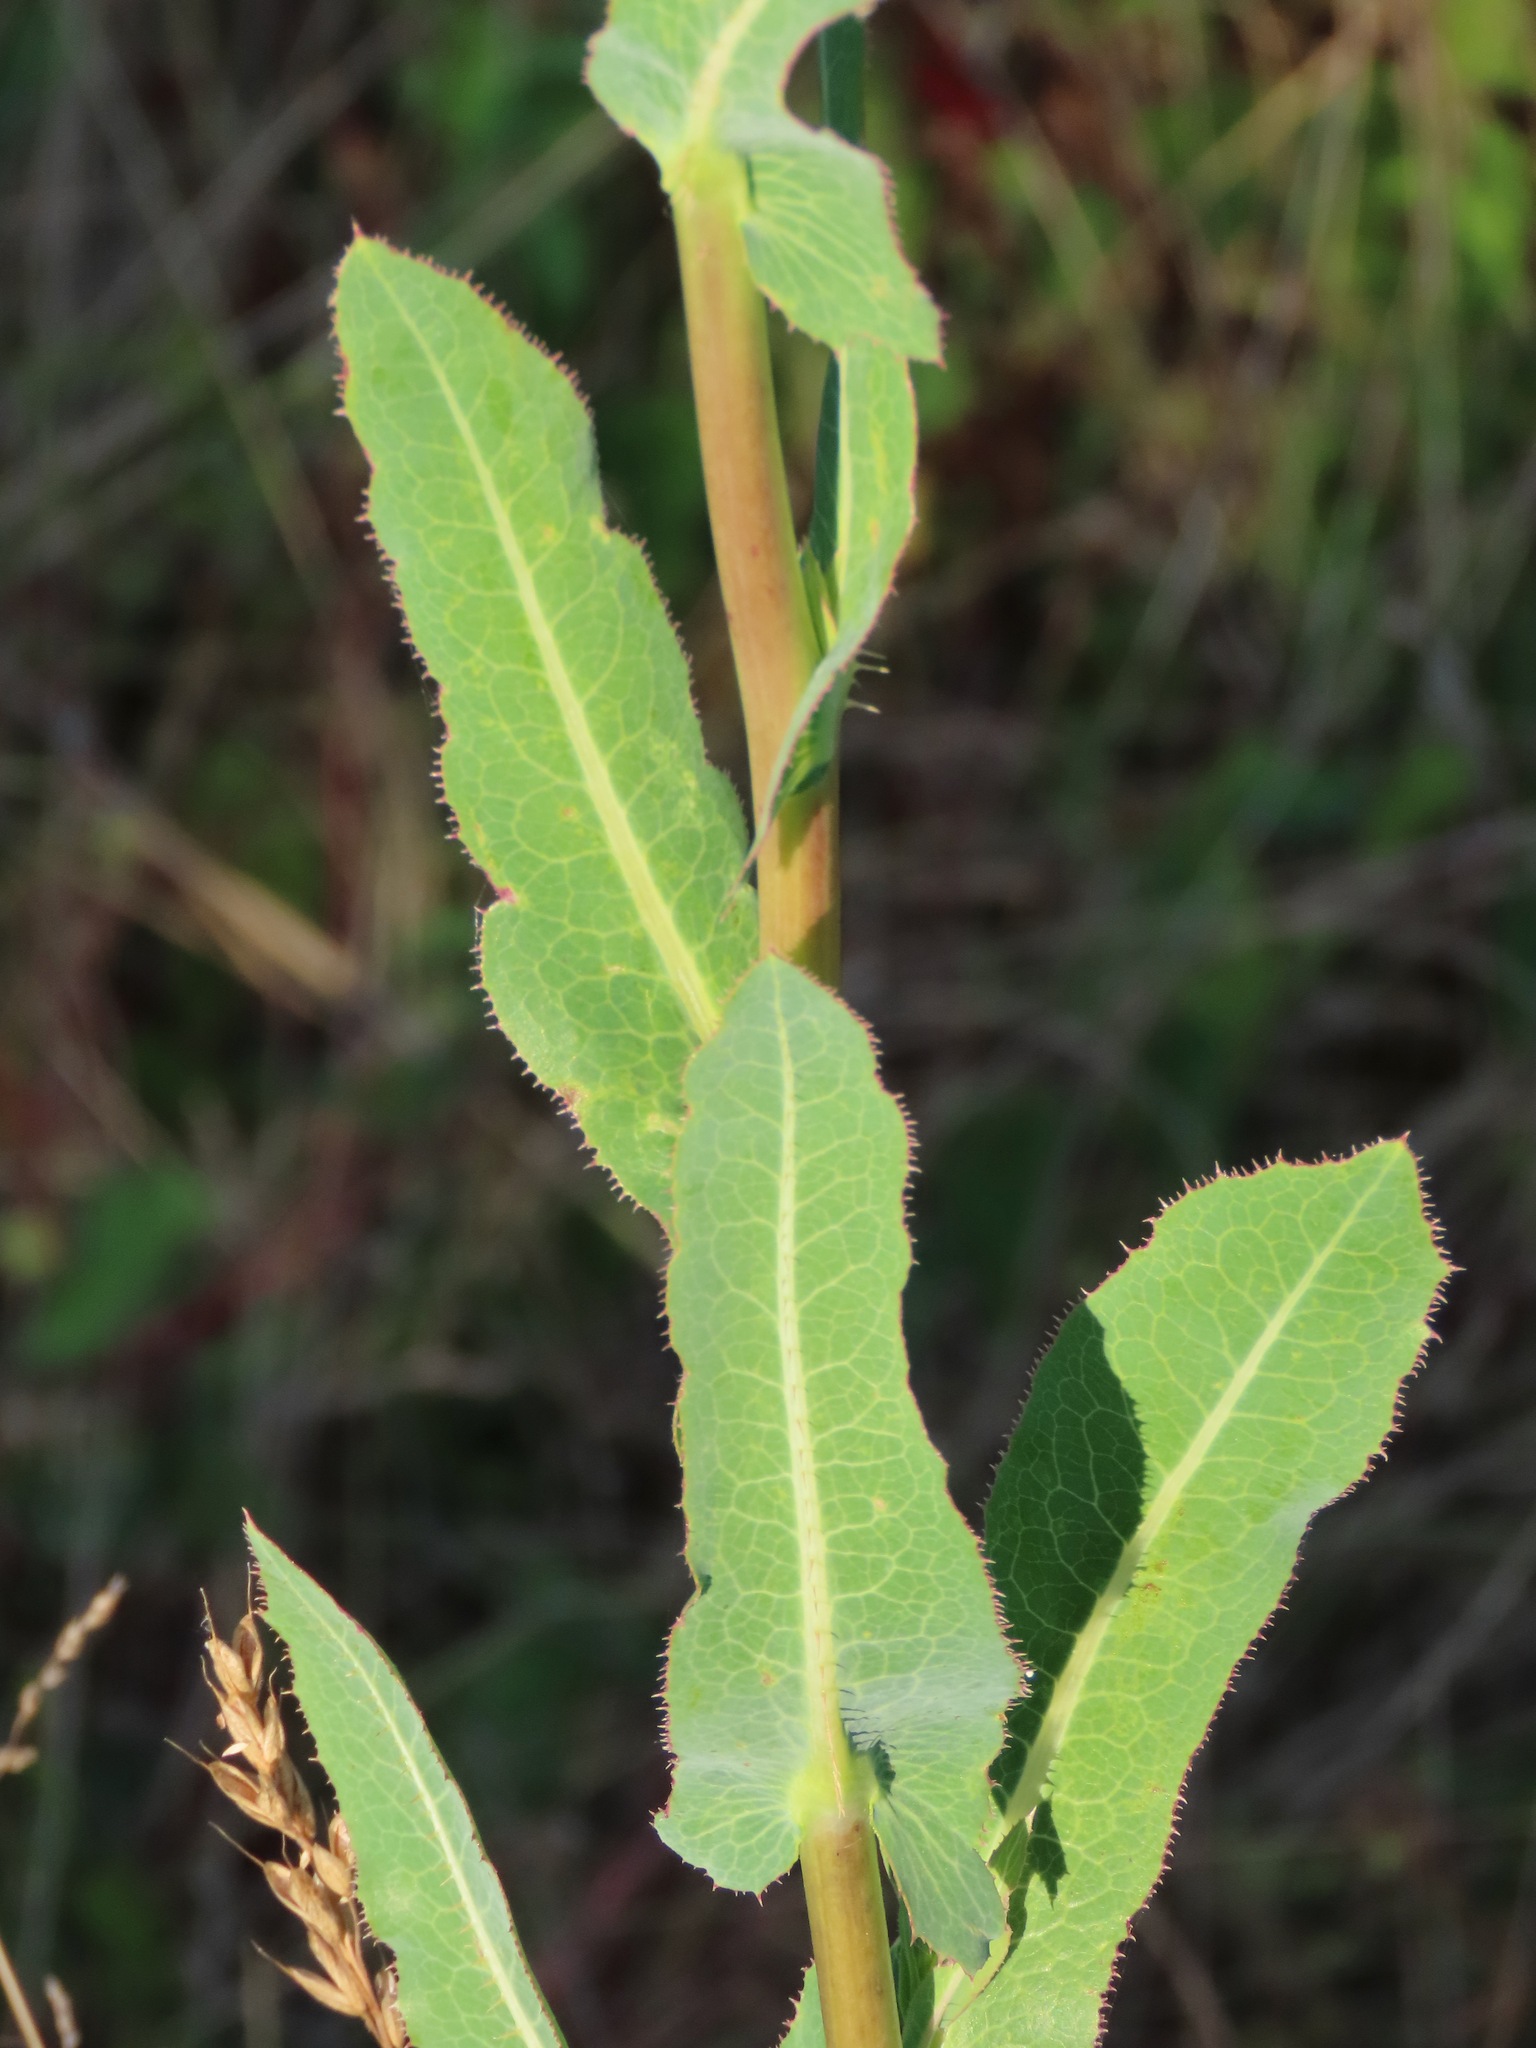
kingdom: Plantae
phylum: Tracheophyta
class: Magnoliopsida
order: Asterales
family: Asteraceae
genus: Lactuca
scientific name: Lactuca serriola
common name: Prickly lettuce
